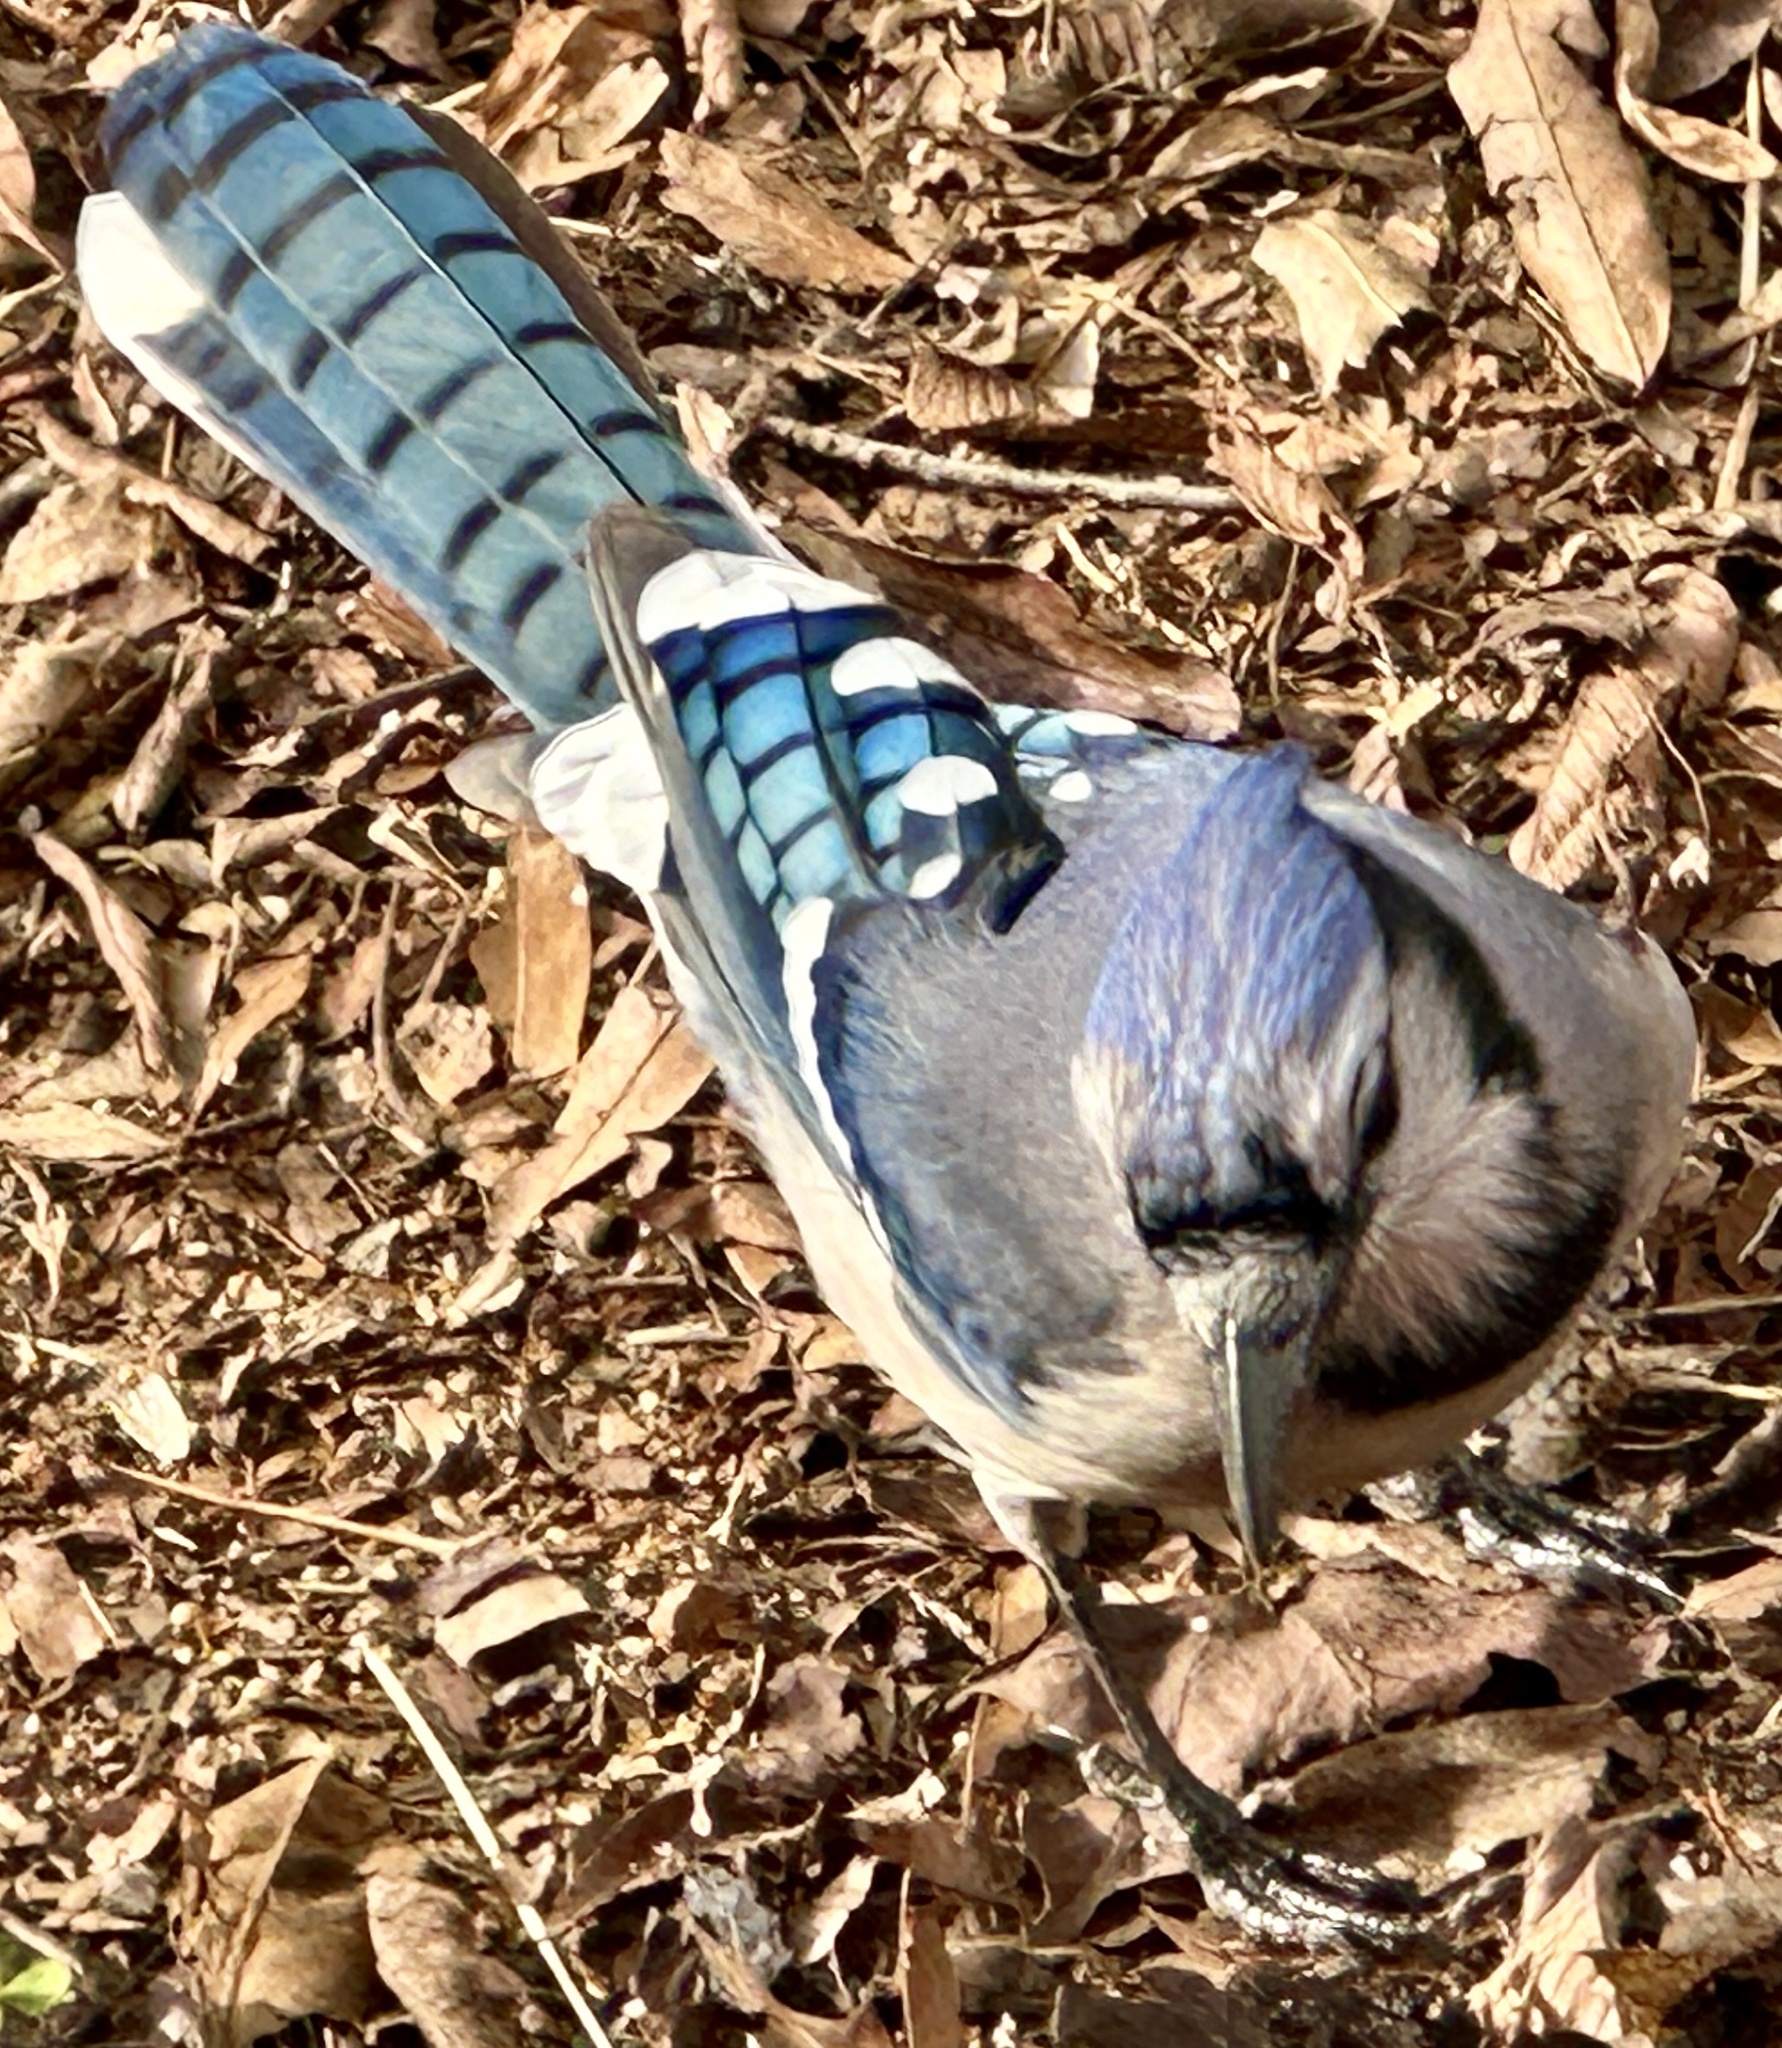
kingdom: Animalia
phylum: Chordata
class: Aves
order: Passeriformes
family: Corvidae
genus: Cyanocitta
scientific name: Cyanocitta cristata
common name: Blue jay
